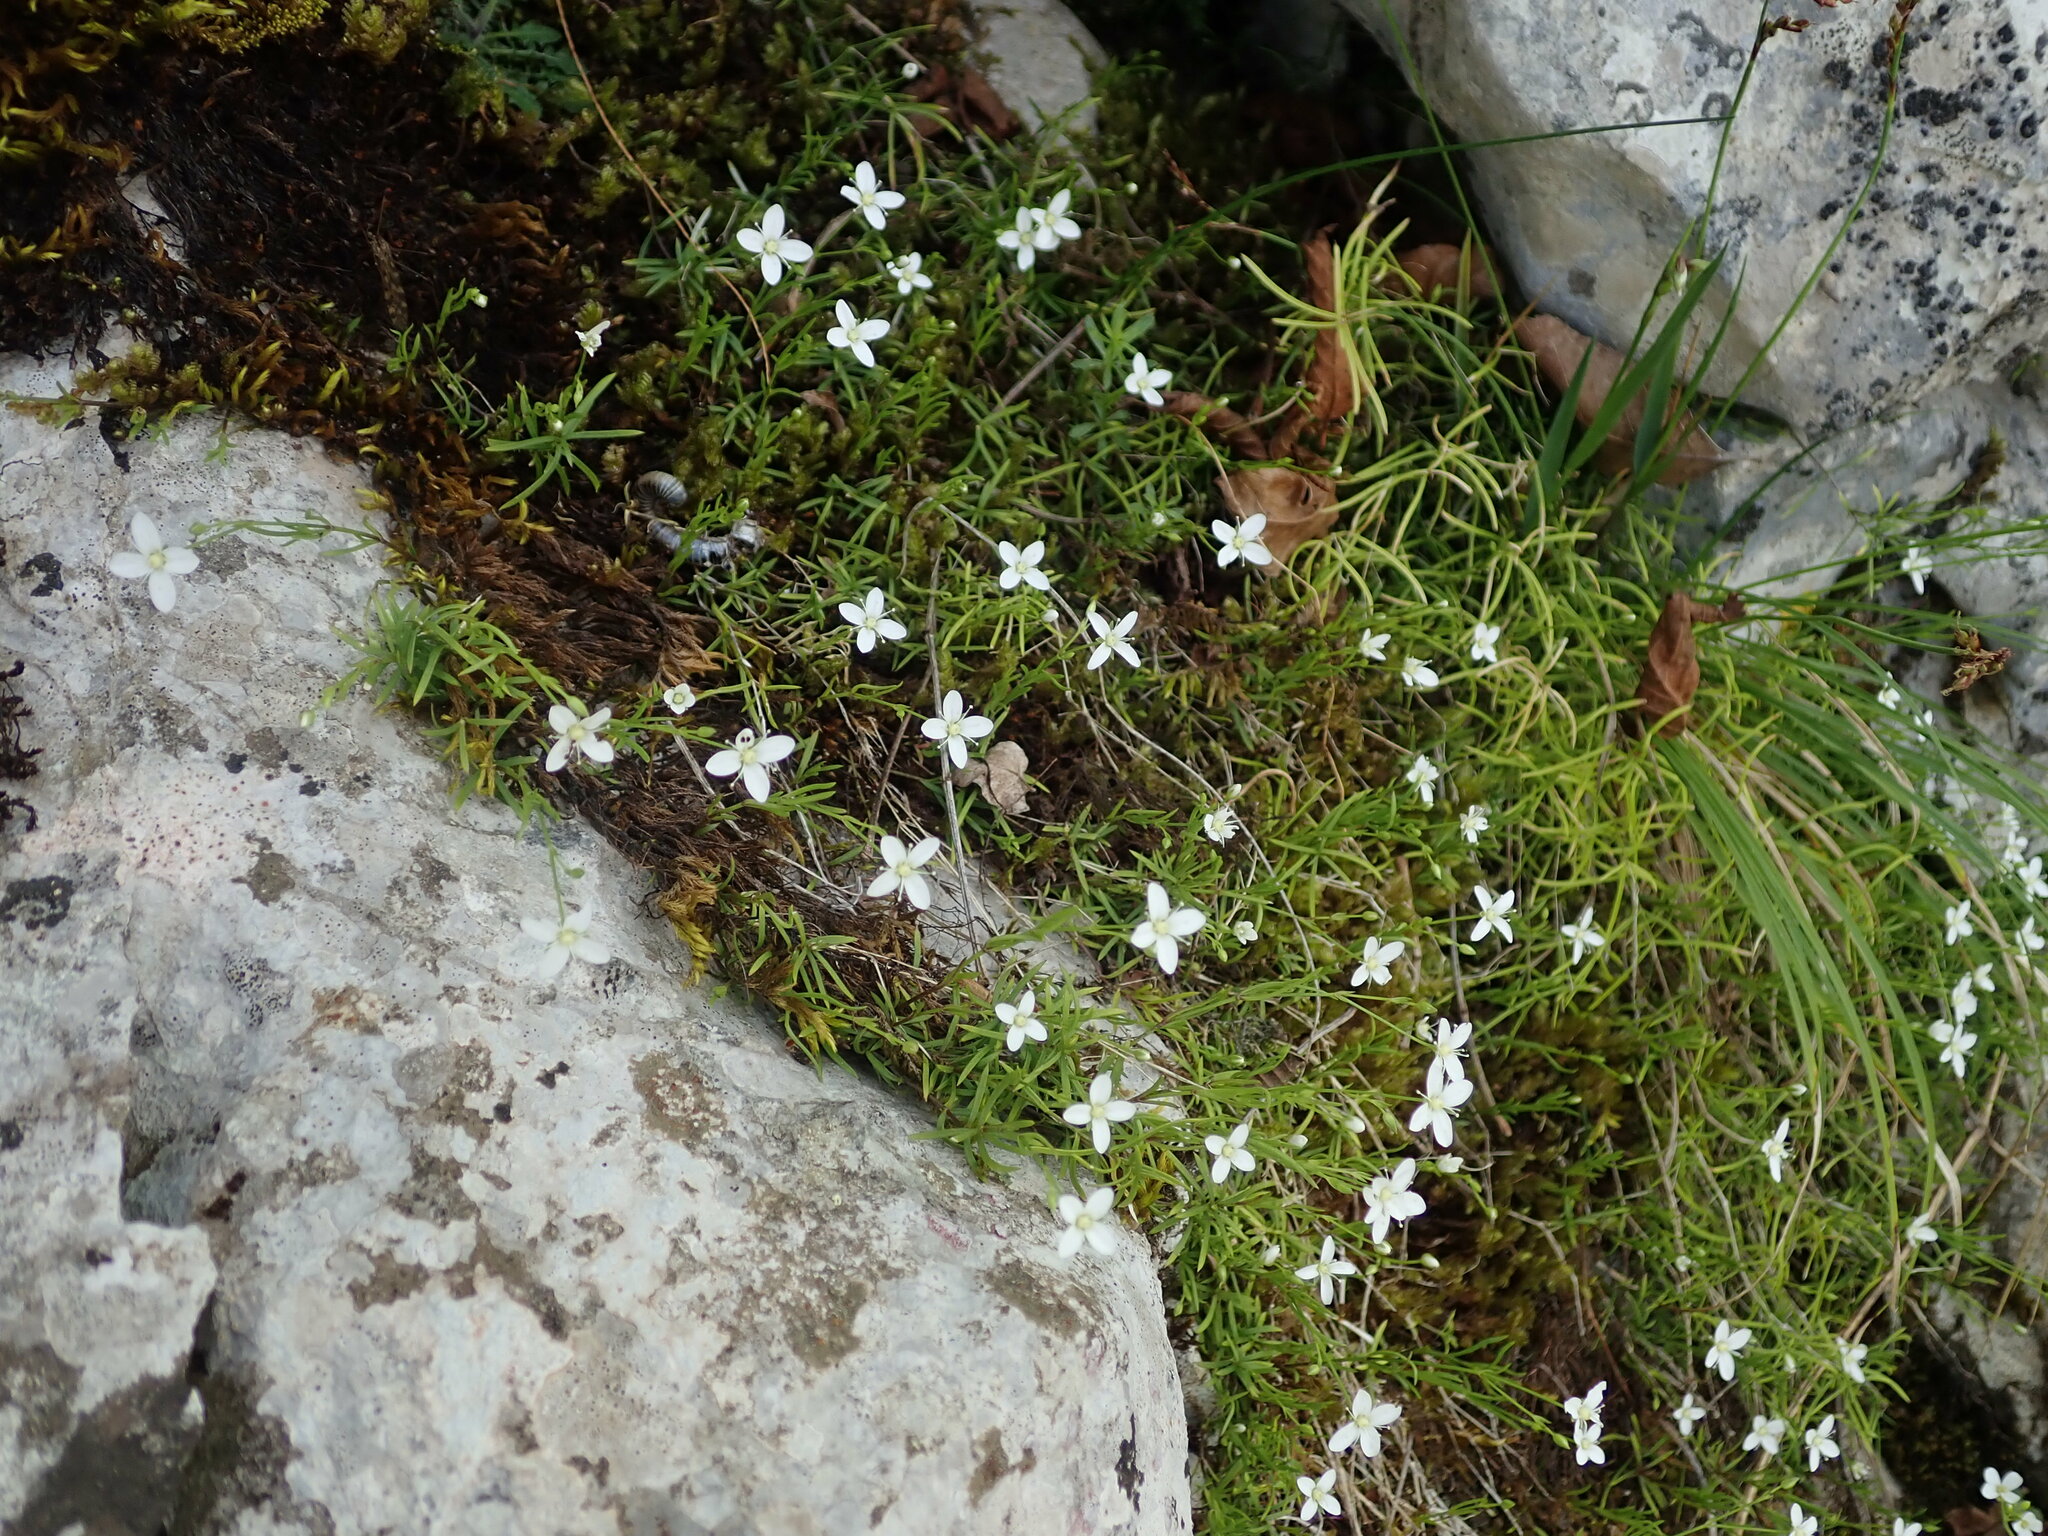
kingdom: Plantae
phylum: Tracheophyta
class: Magnoliopsida
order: Caryophyllales
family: Caryophyllaceae
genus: Moehringia
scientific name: Moehringia muscosa
